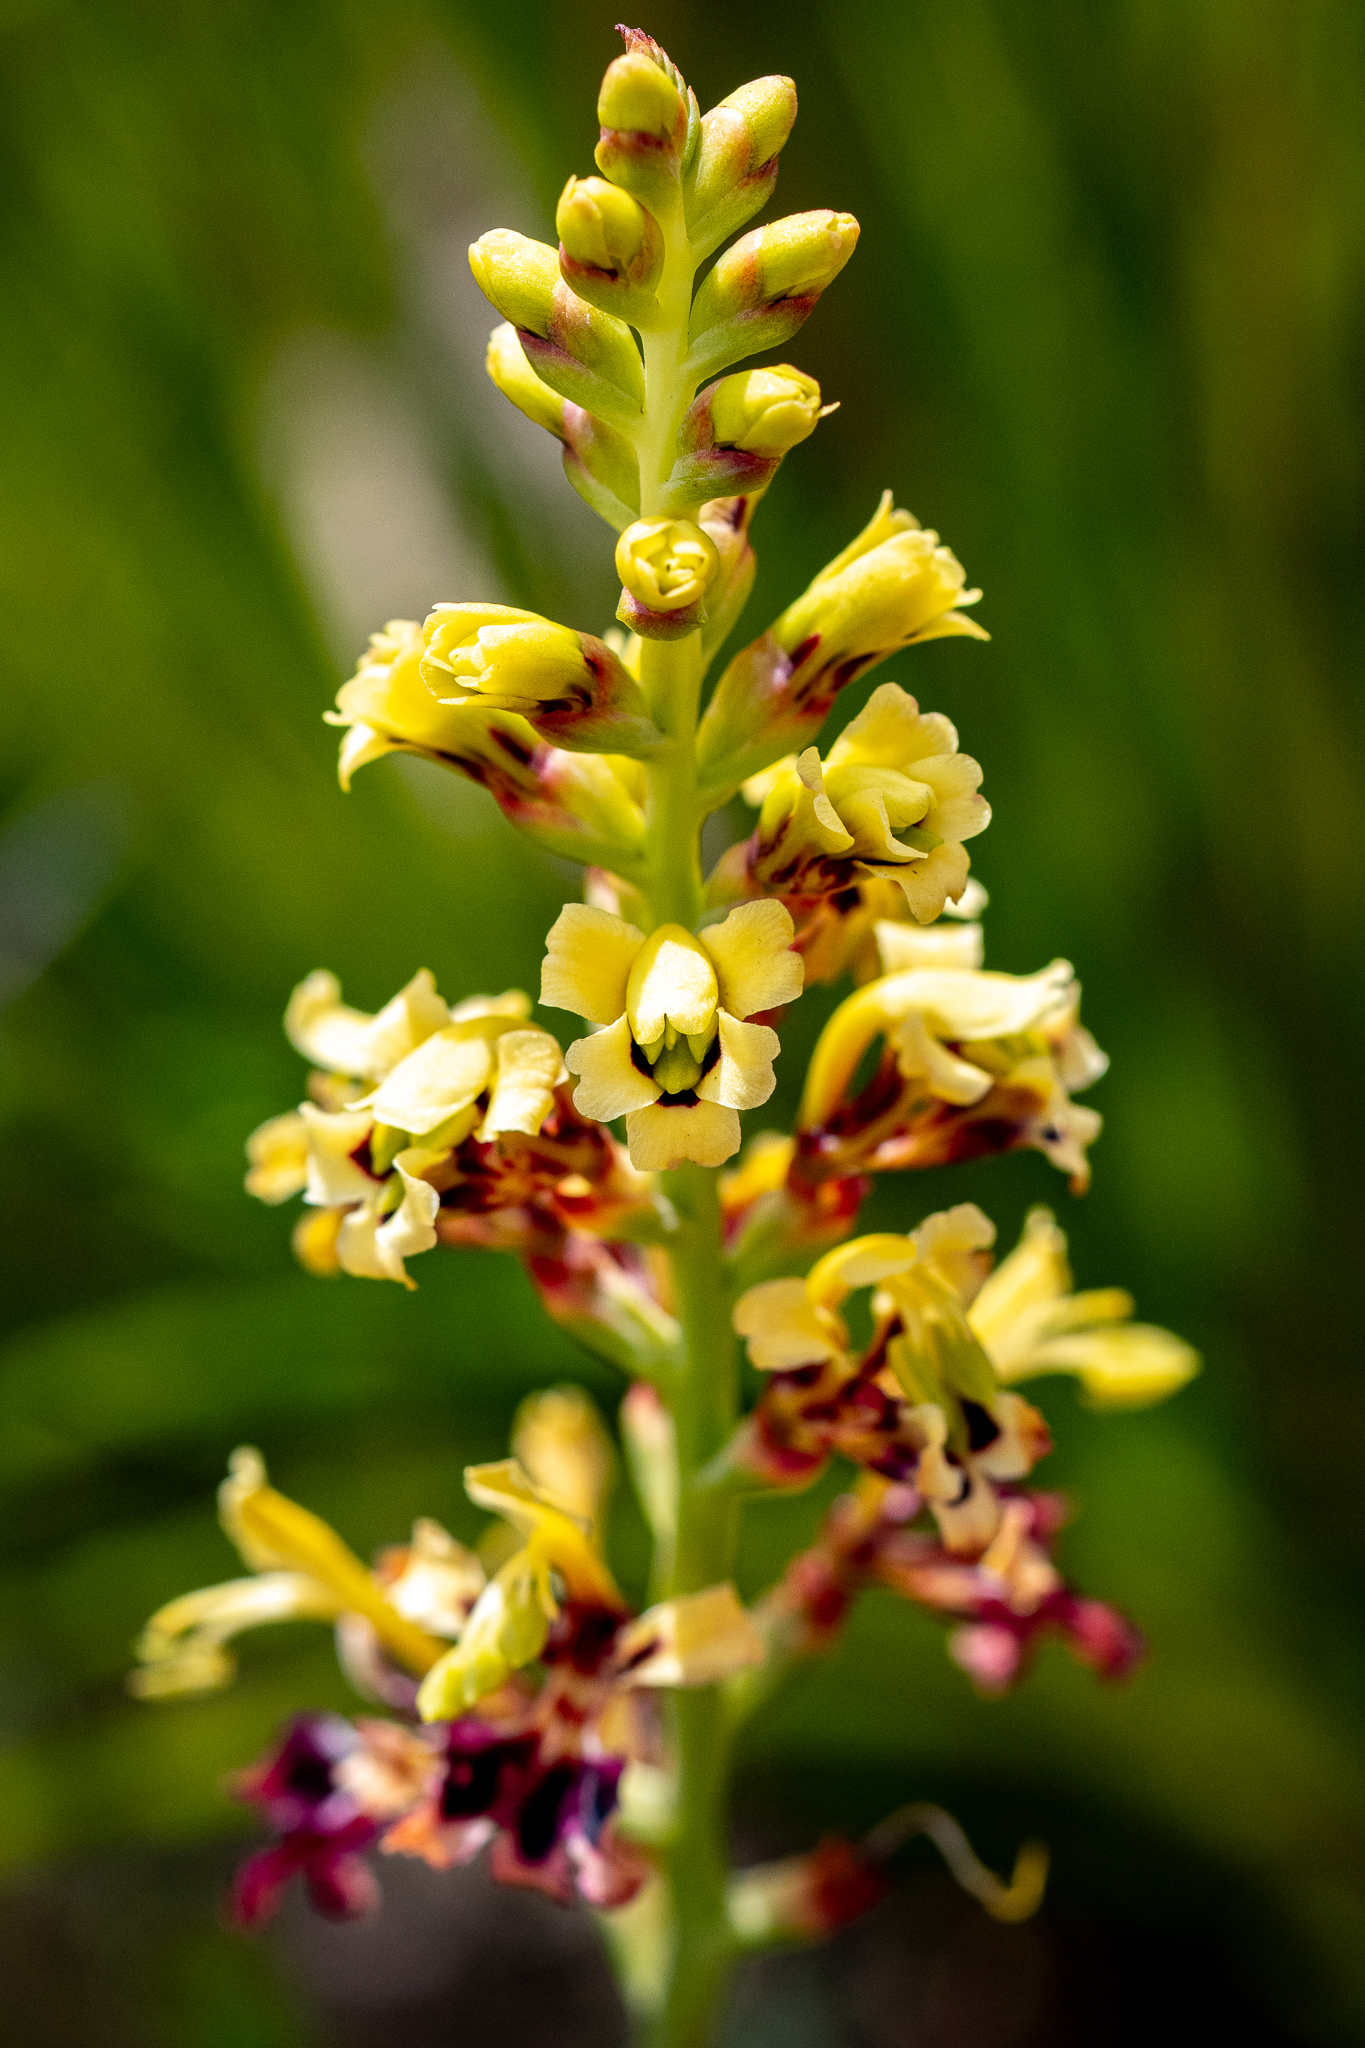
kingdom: Plantae
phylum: Tracheophyta
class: Liliopsida
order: Asparagales
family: Iridaceae
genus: Tritoniopsis
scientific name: Tritoniopsis parviflora
